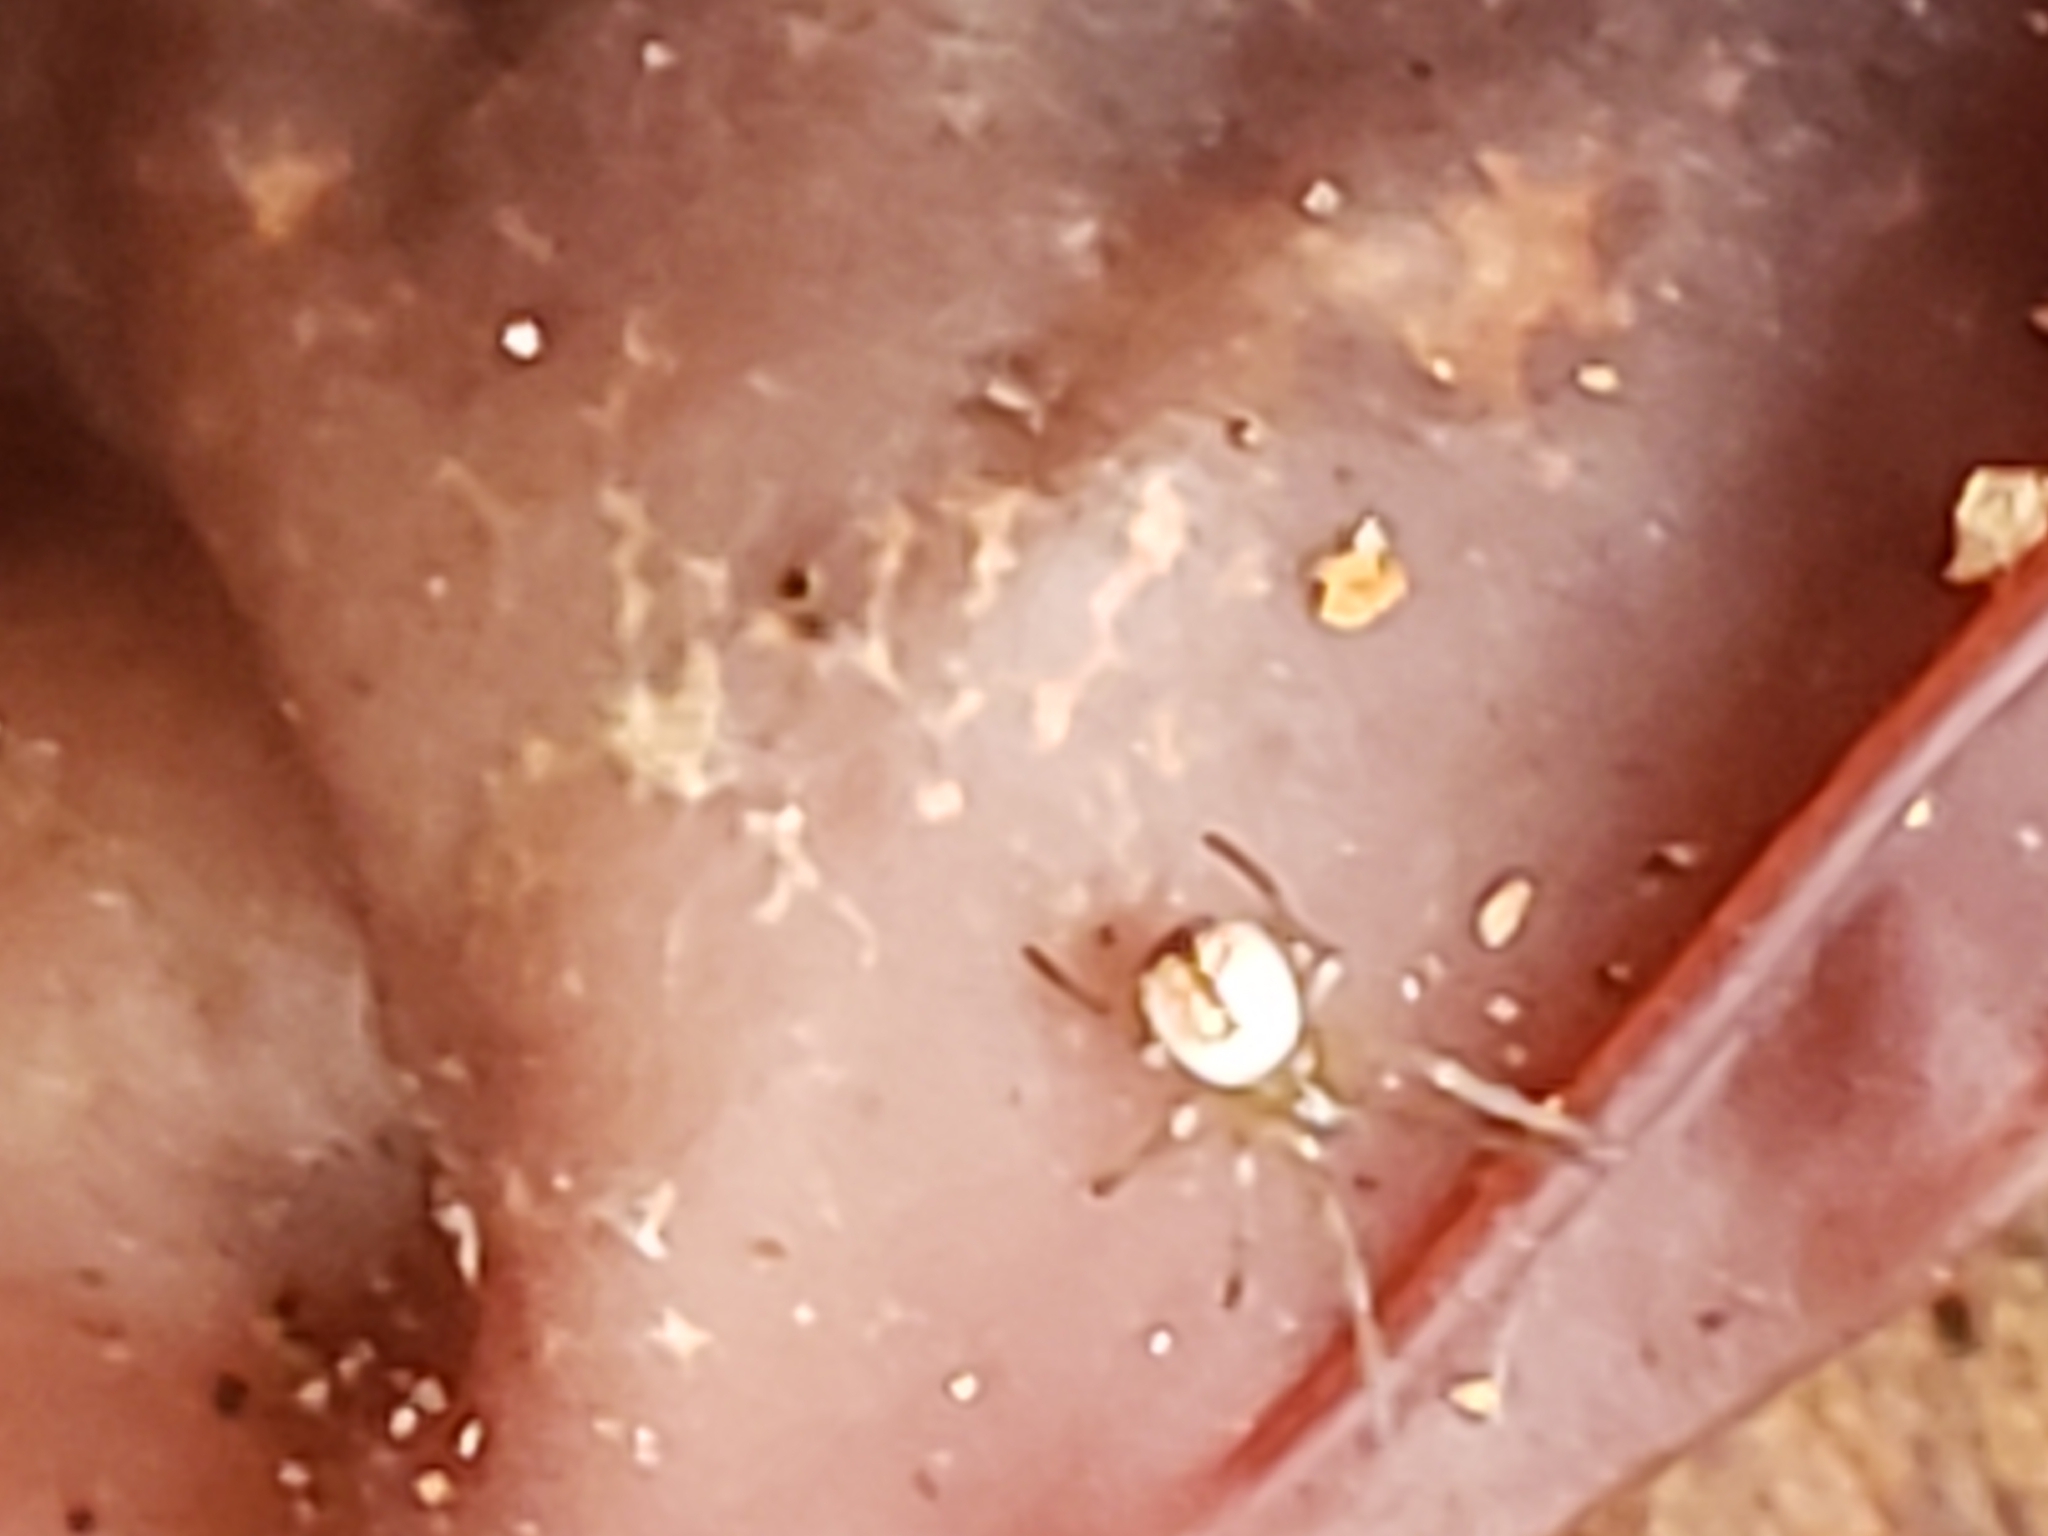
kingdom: Animalia
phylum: Arthropoda
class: Arachnida
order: Araneae
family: Tetragnathidae
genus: Leucauge
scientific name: Leucauge venusta
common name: Longjawed orb weavers
